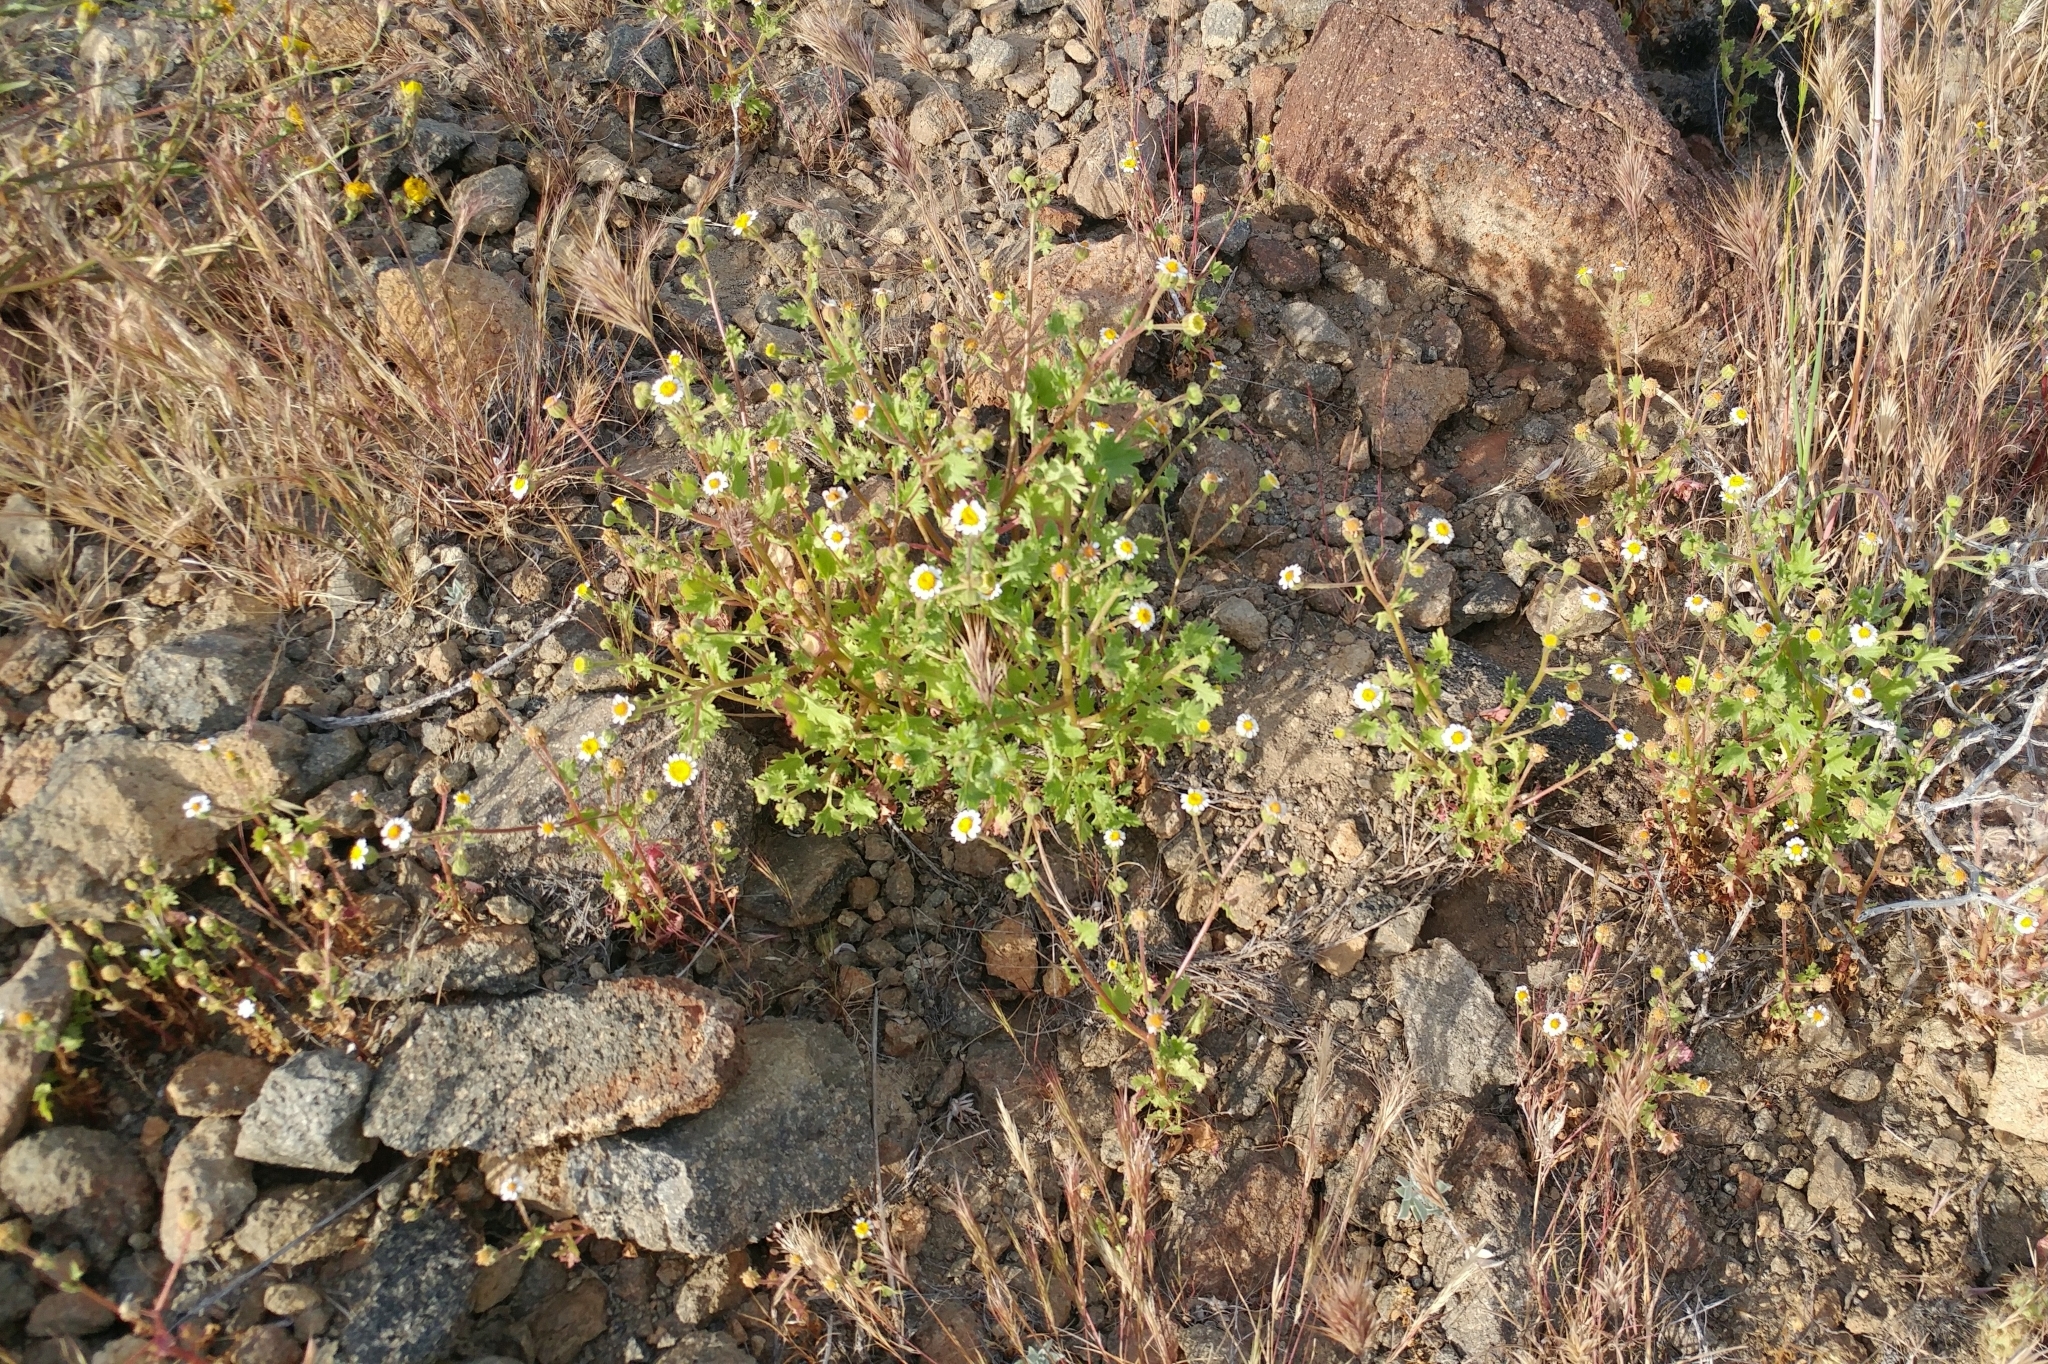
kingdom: Plantae
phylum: Tracheophyta
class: Magnoliopsida
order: Asterales
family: Asteraceae
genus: Laphamia
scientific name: Laphamia emoryi
